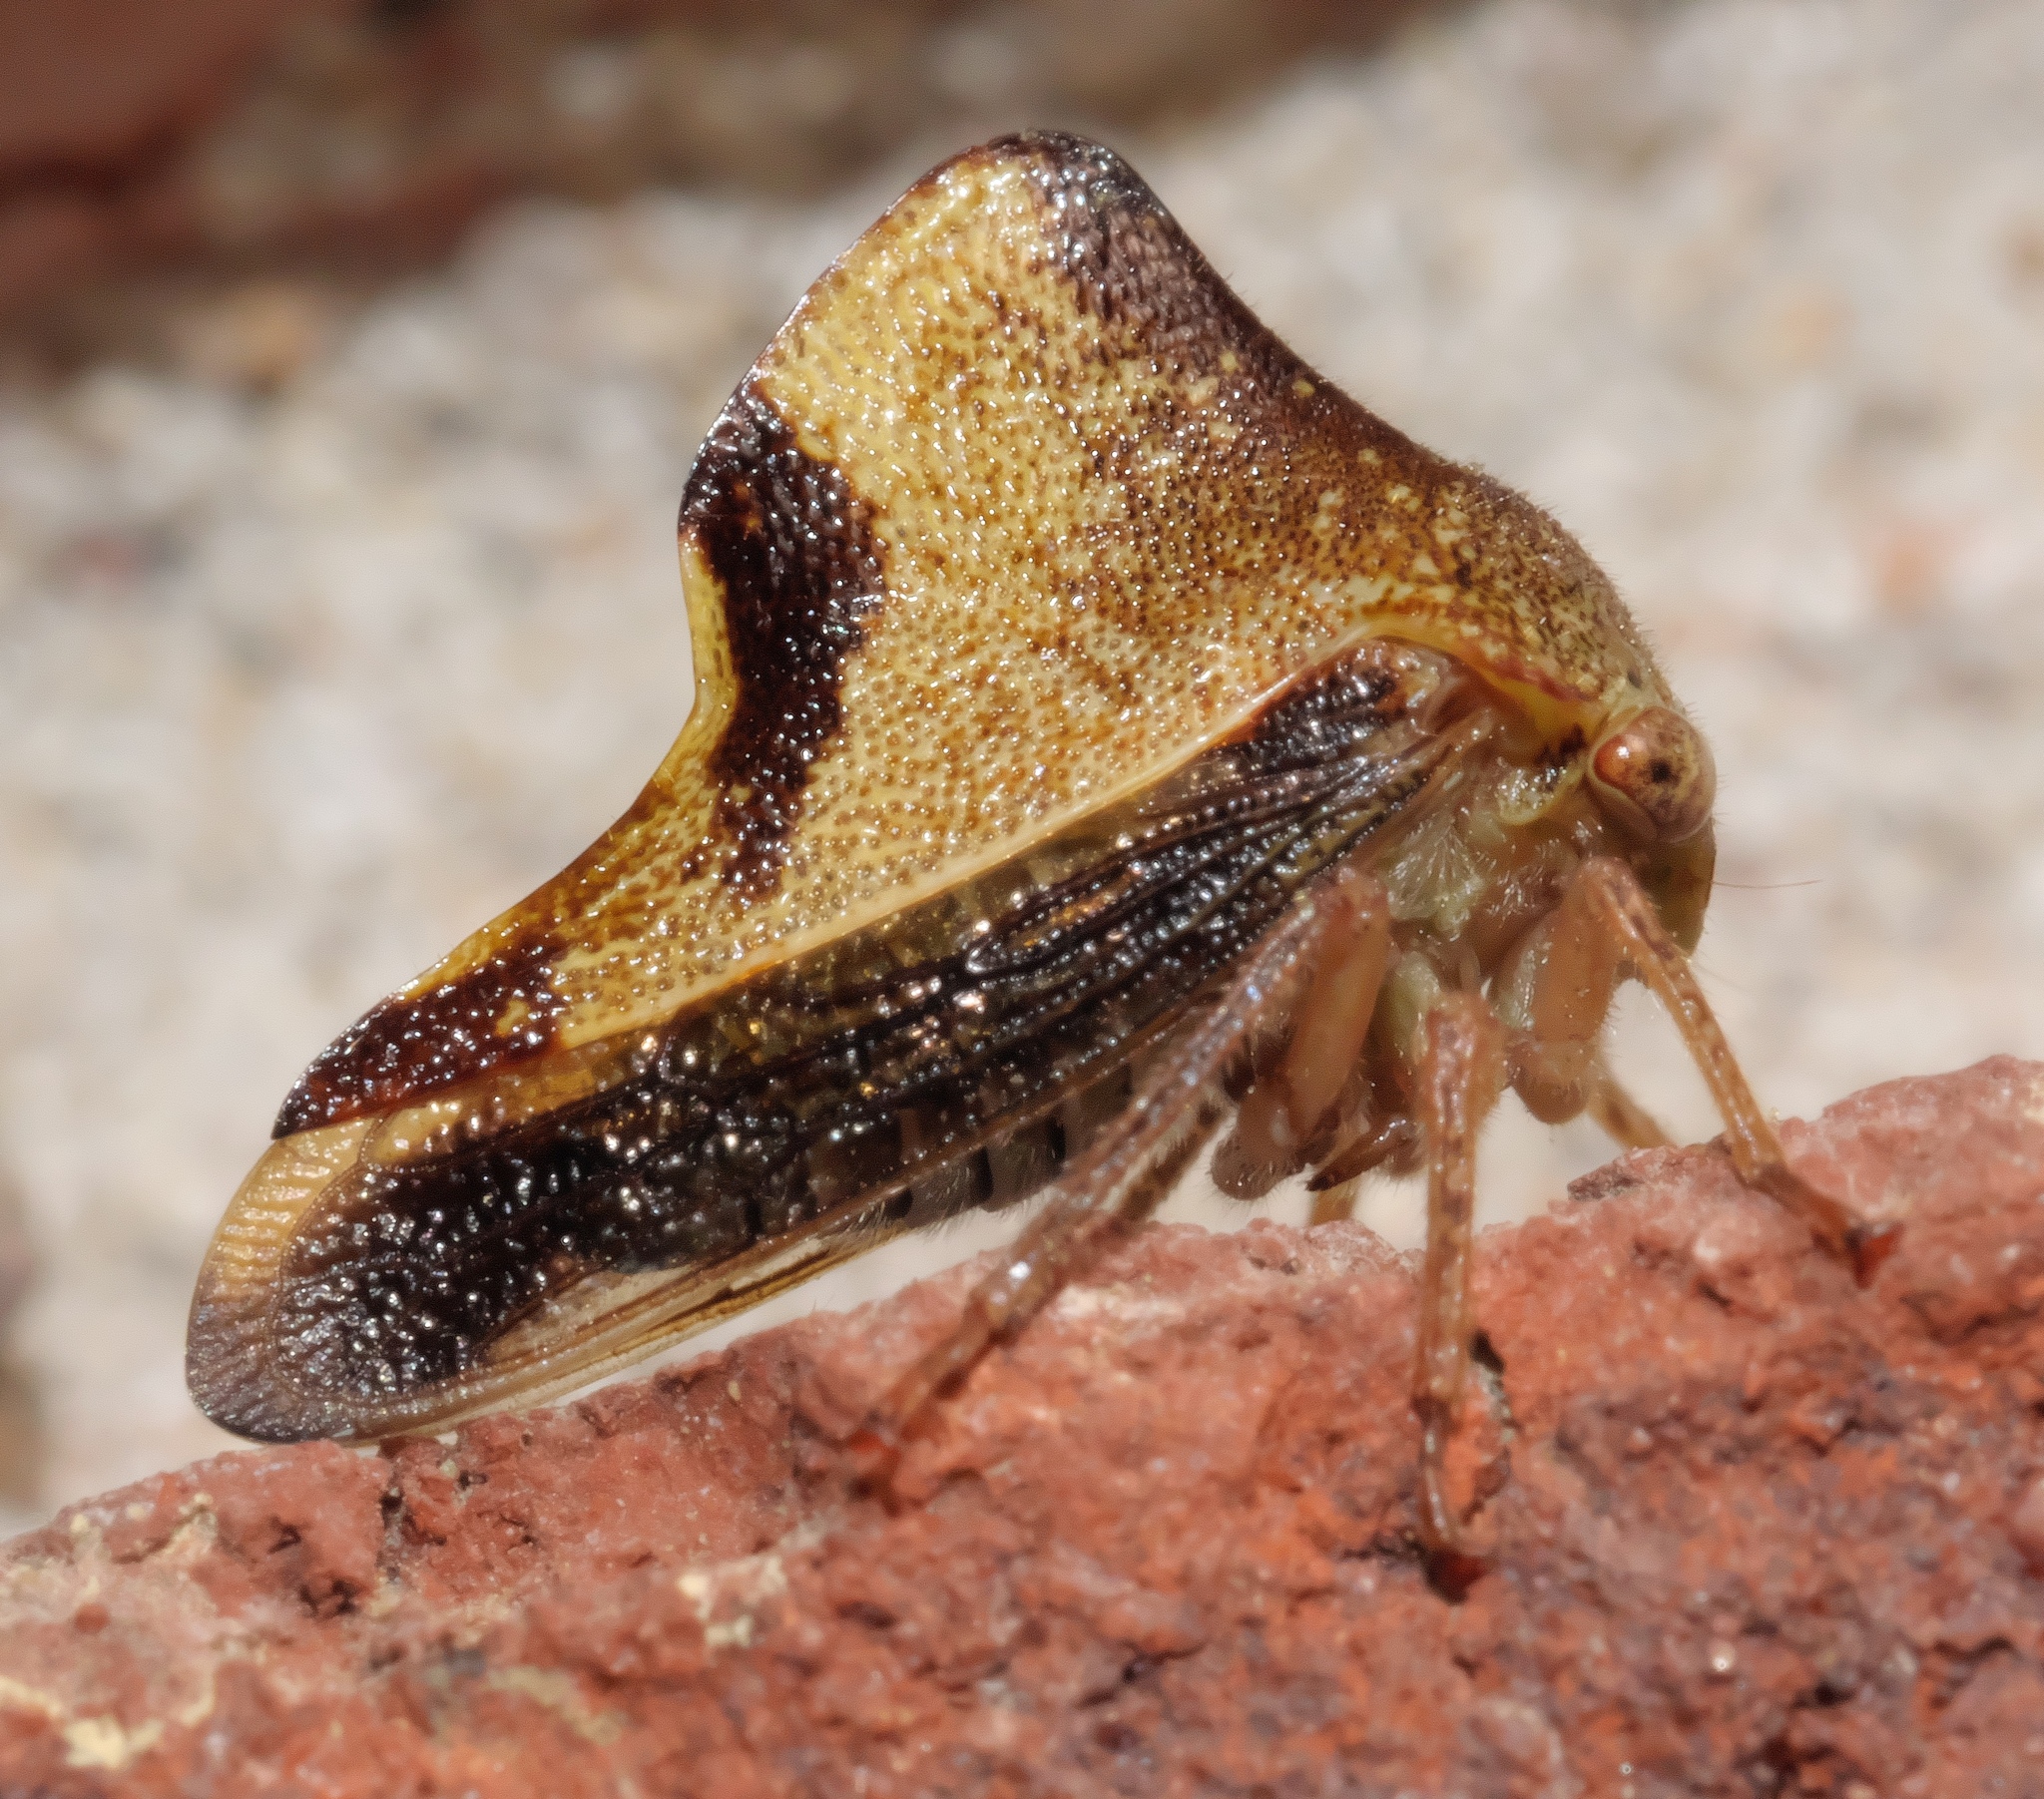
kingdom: Animalia
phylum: Arthropoda
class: Insecta
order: Hemiptera
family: Membracidae
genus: Helonica
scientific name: Helonica excelsa
